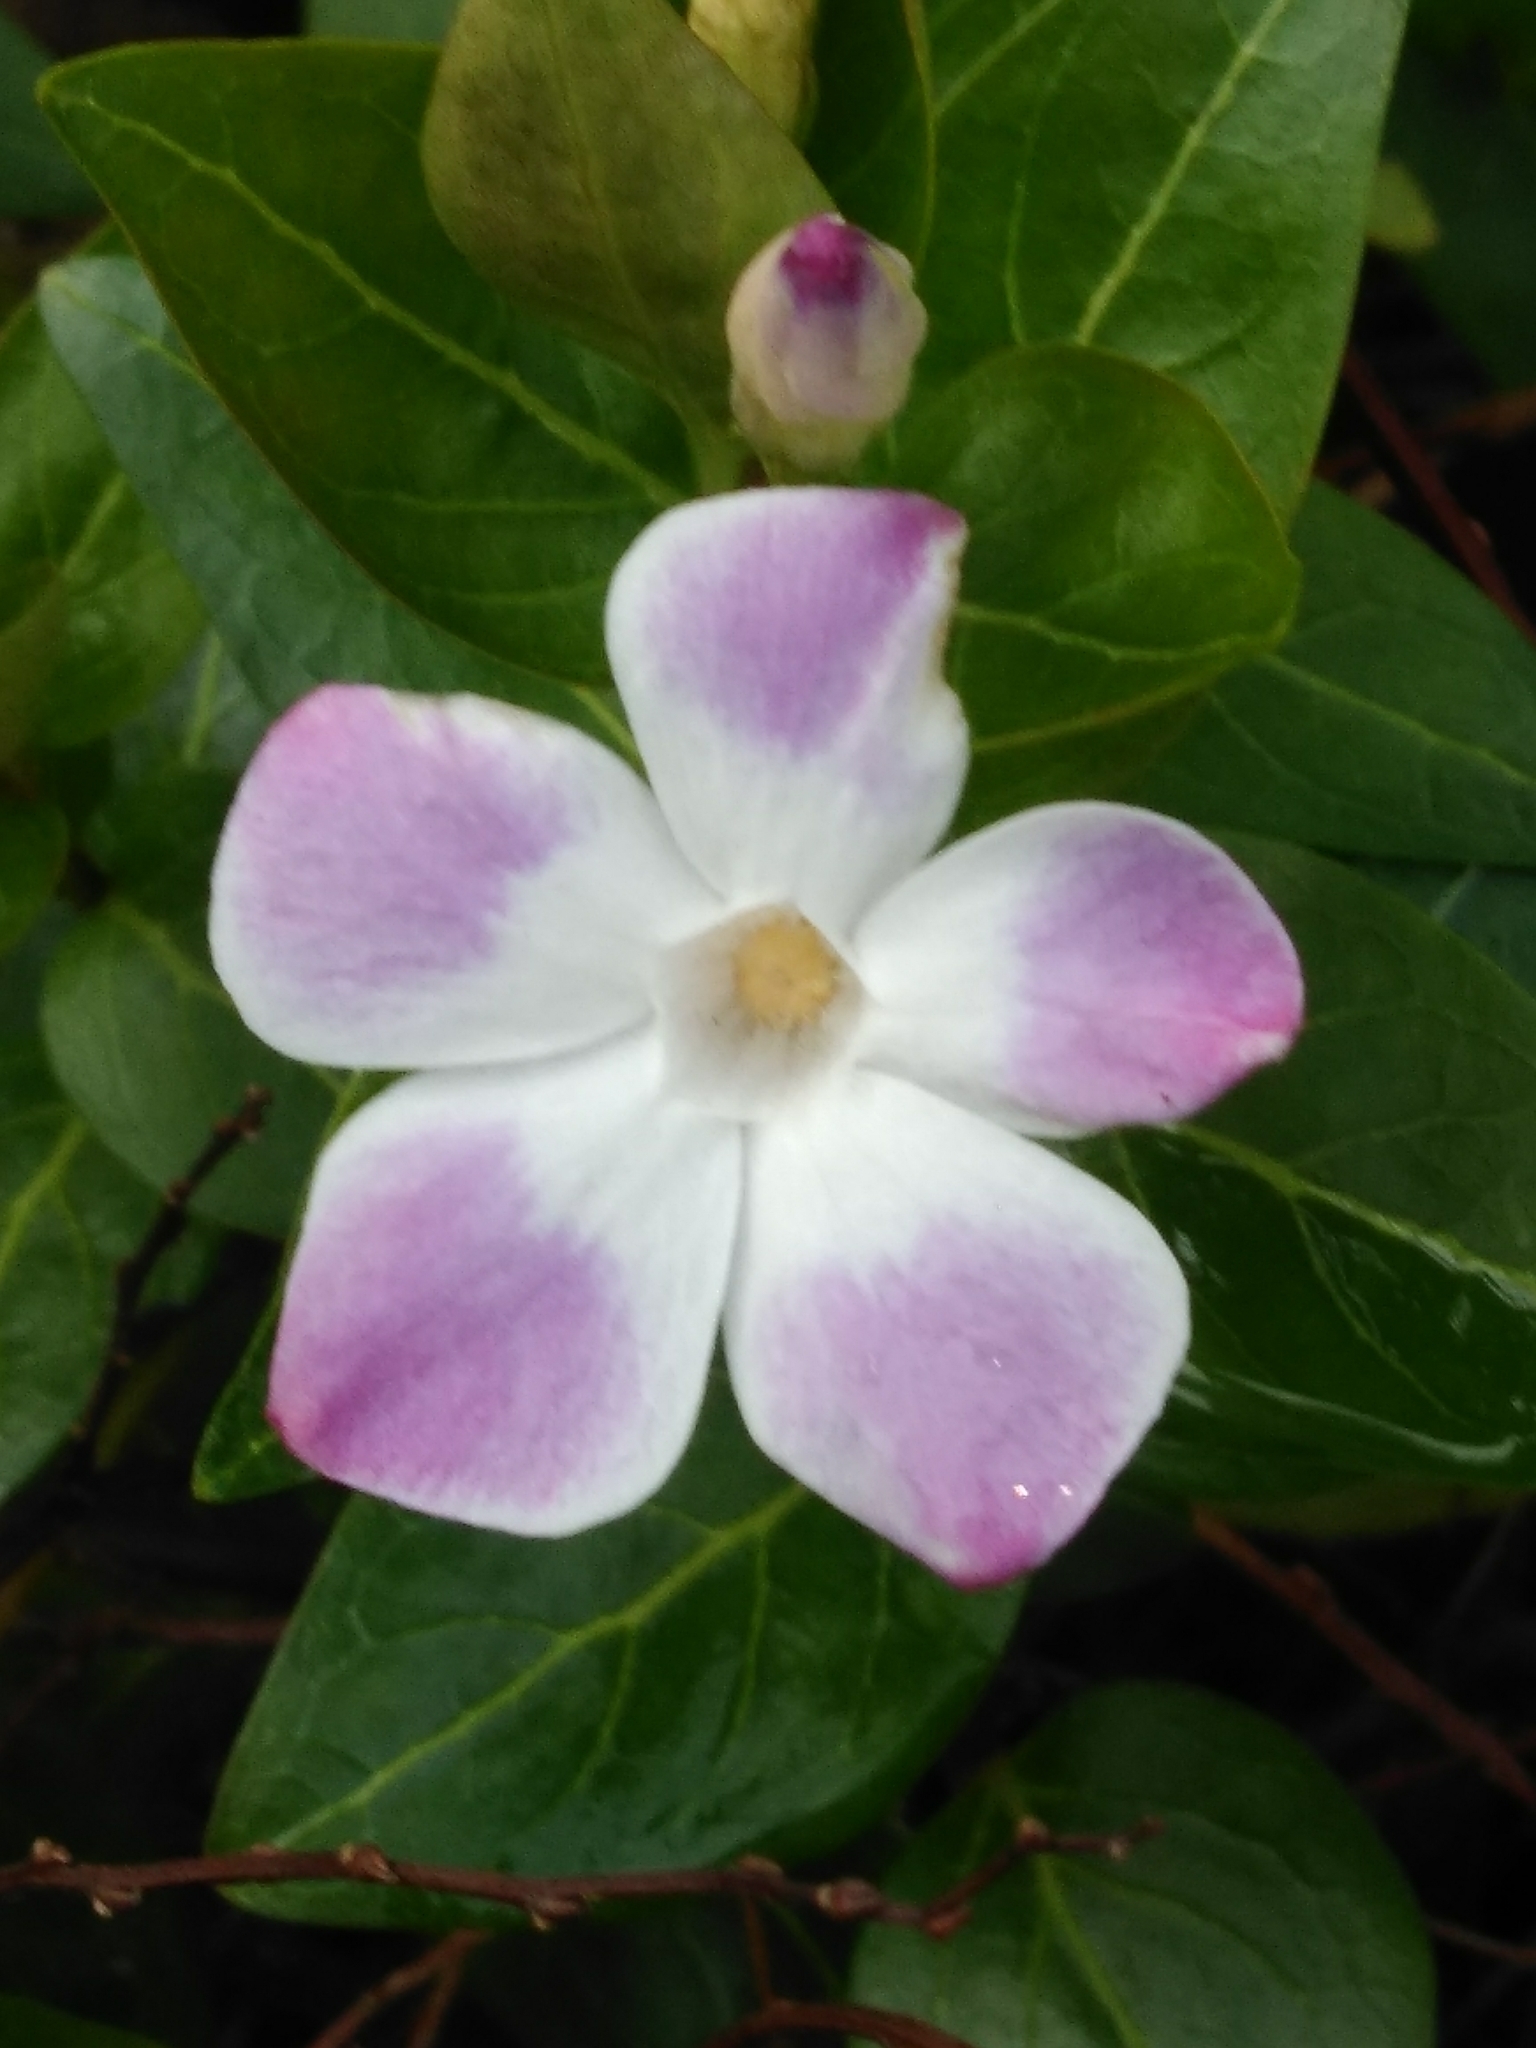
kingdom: Plantae
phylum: Tracheophyta
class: Magnoliopsida
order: Gentianales
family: Apocynaceae
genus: Vinca
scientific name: Vinca difformis
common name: Intermediate periwinkle
